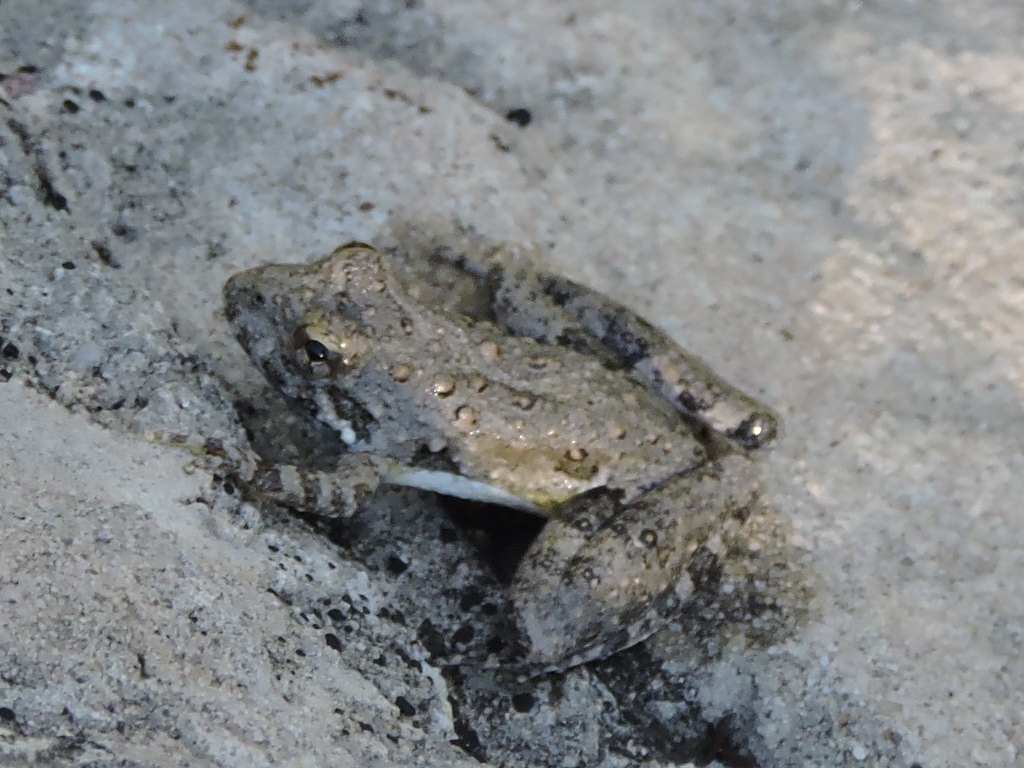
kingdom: Animalia
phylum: Chordata
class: Amphibia
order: Anura
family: Hylidae
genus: Acris
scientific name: Acris blanchardi
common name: Blanchard's cricket frog
